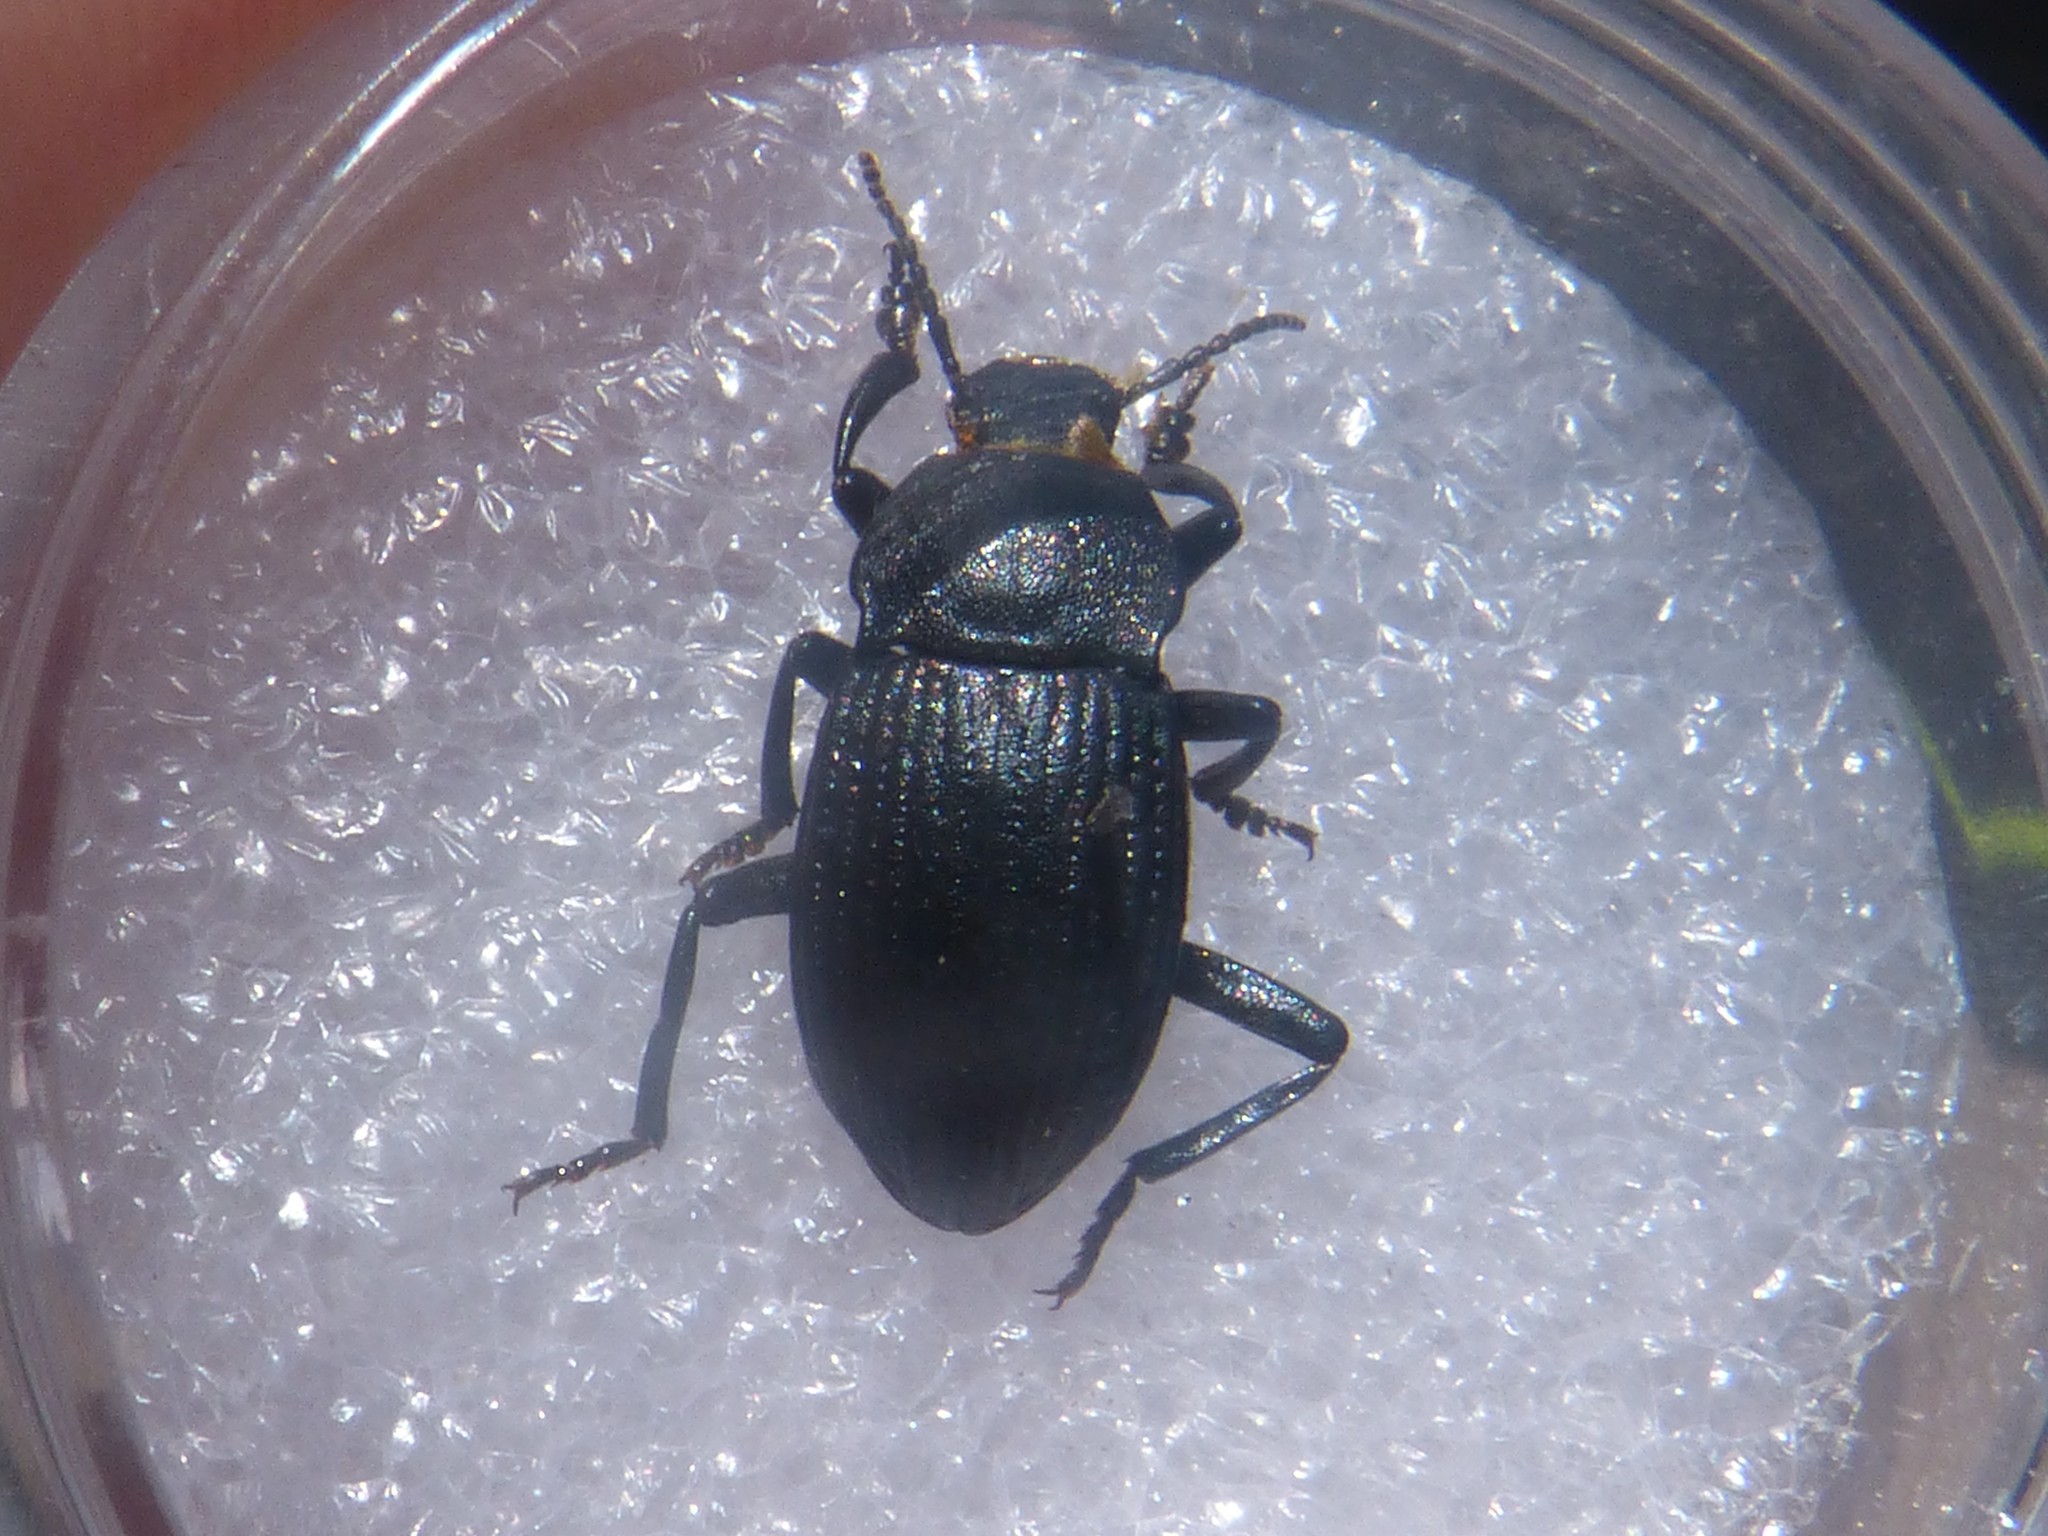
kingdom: Animalia
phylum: Arthropoda
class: Insecta
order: Coleoptera
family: Tenebrionidae
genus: Dendarus
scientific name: Dendarus coarcticollis
